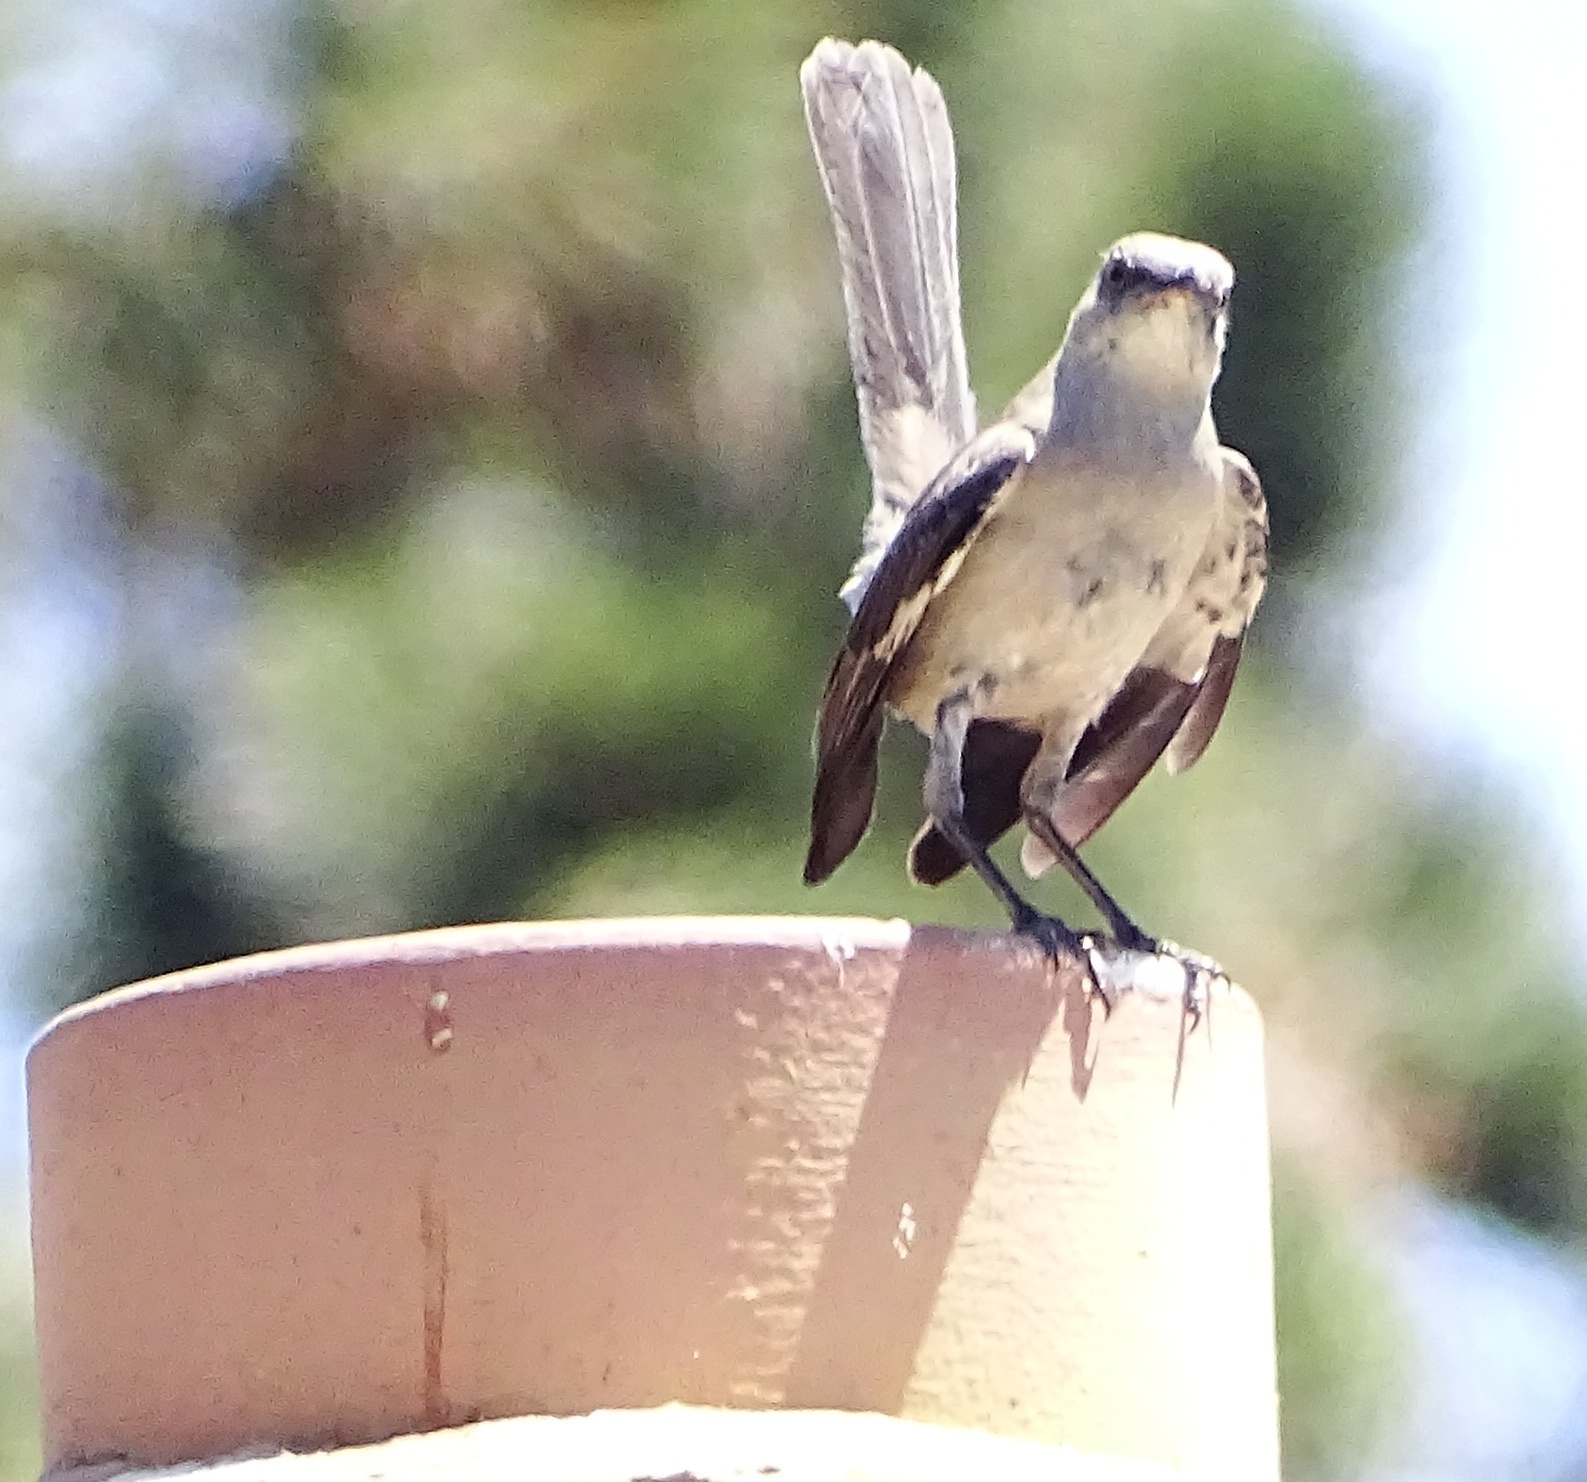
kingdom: Animalia
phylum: Chordata
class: Aves
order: Passeriformes
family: Mimidae
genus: Mimus
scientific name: Mimus polyglottos
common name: Northern mockingbird
